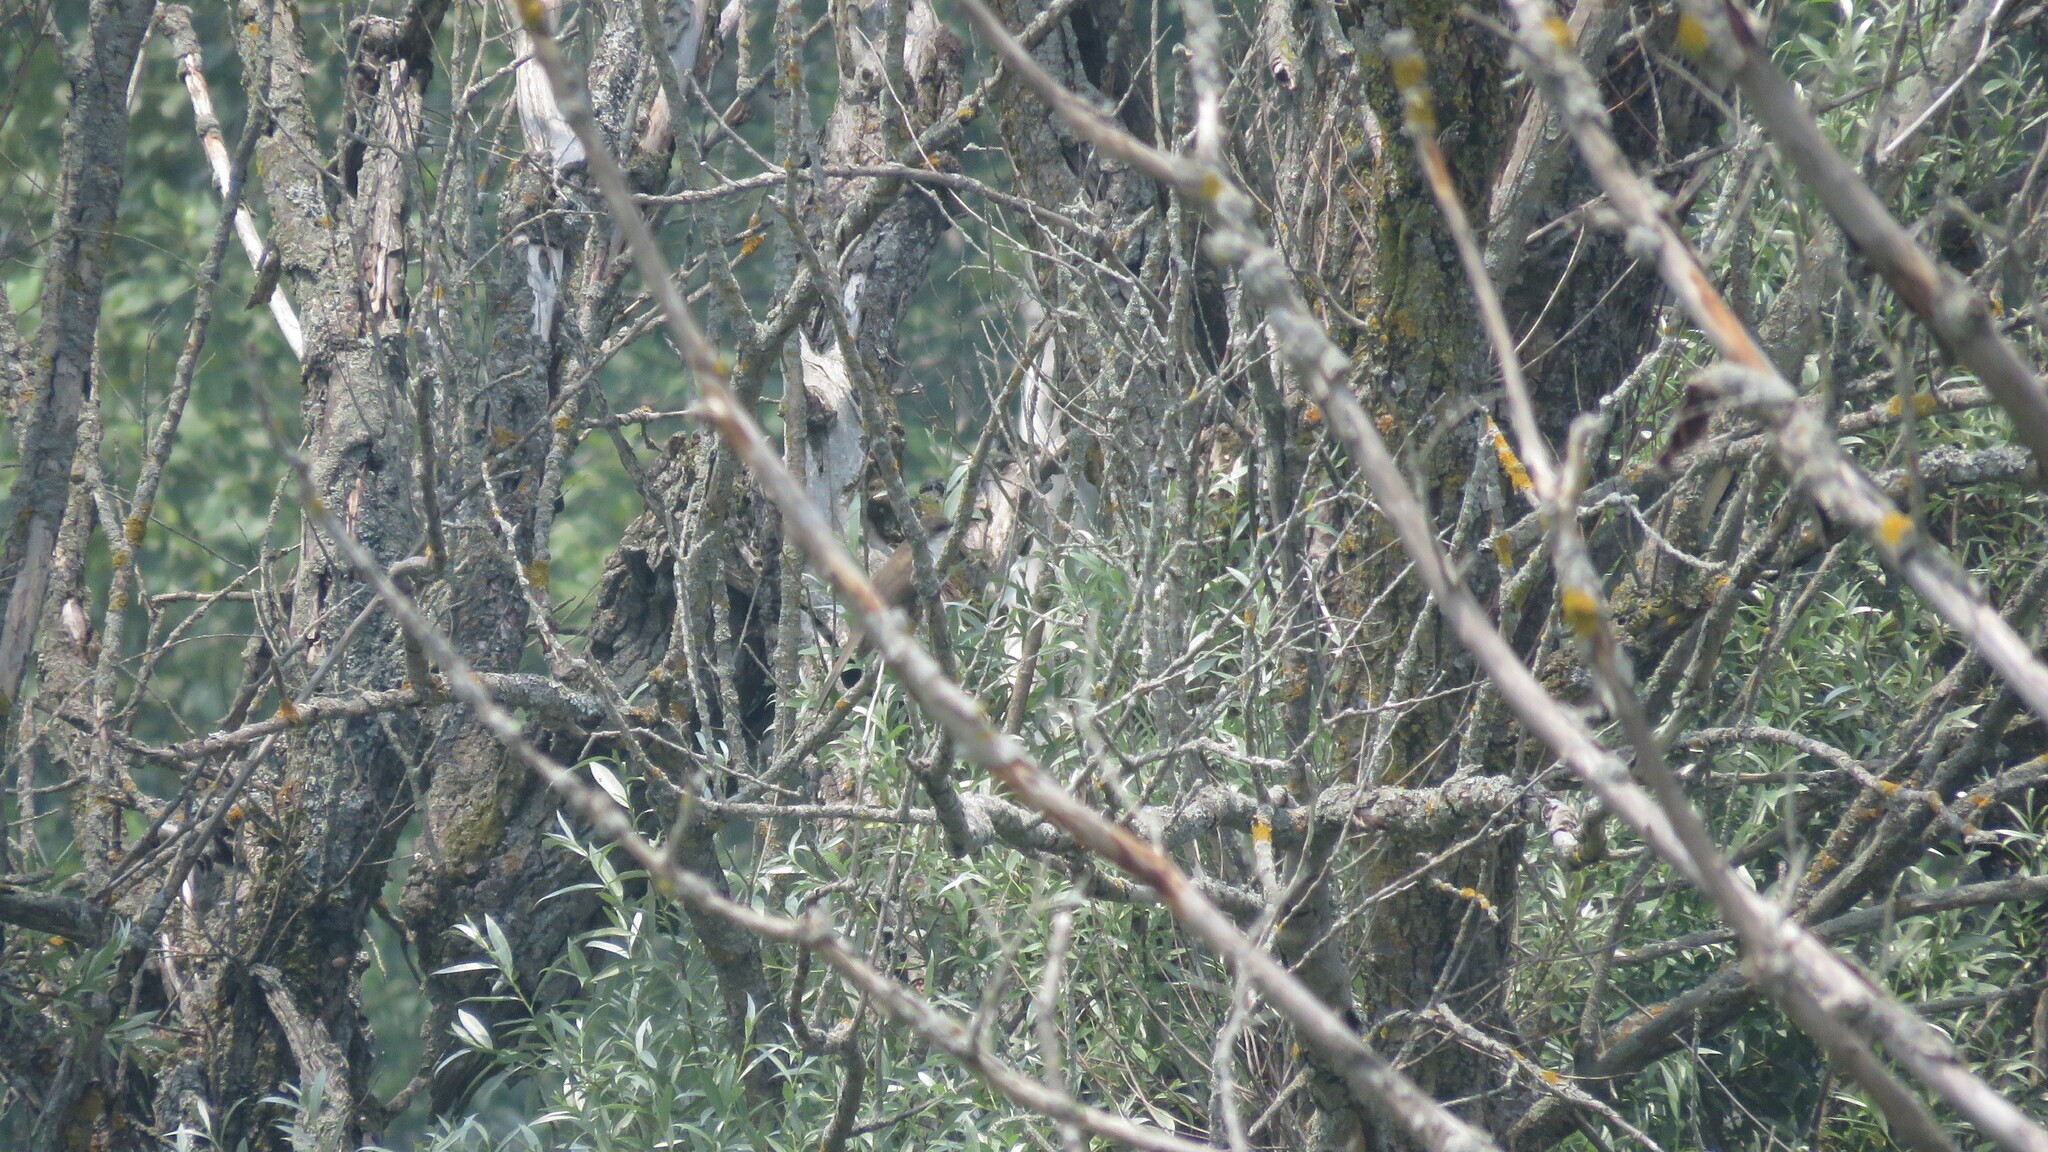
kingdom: Animalia
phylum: Chordata
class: Aves
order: Cuculiformes
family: Cuculidae
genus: Coccyzus
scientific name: Coccyzus erythropthalmus
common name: Black-billed cuckoo
